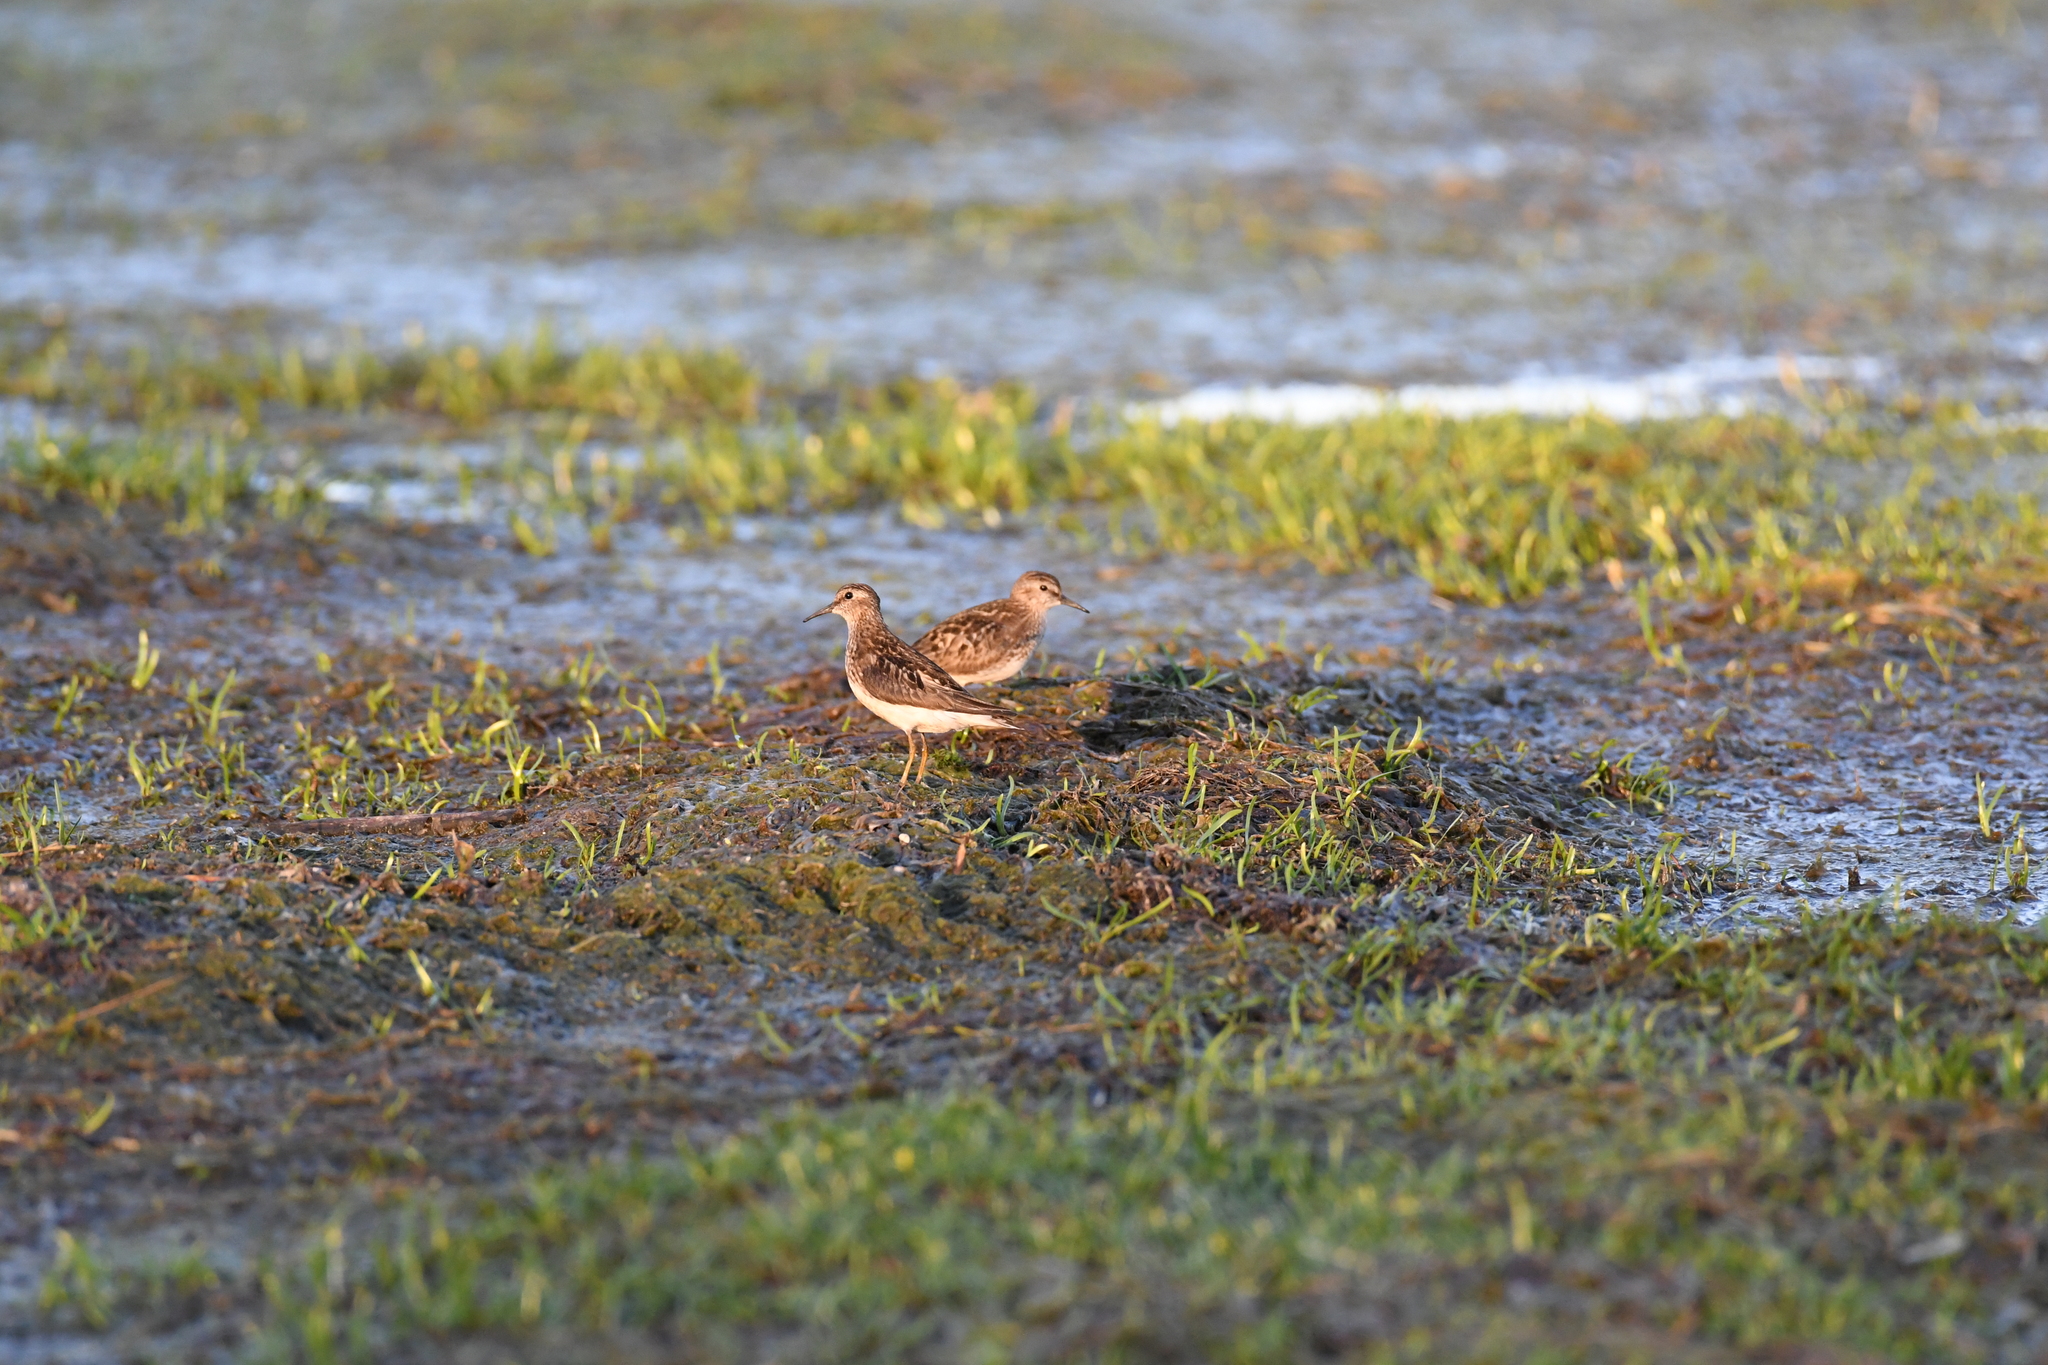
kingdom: Animalia
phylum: Chordata
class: Aves
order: Charadriiformes
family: Scolopacidae
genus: Calidris
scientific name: Calidris minutilla
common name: Least sandpiper
